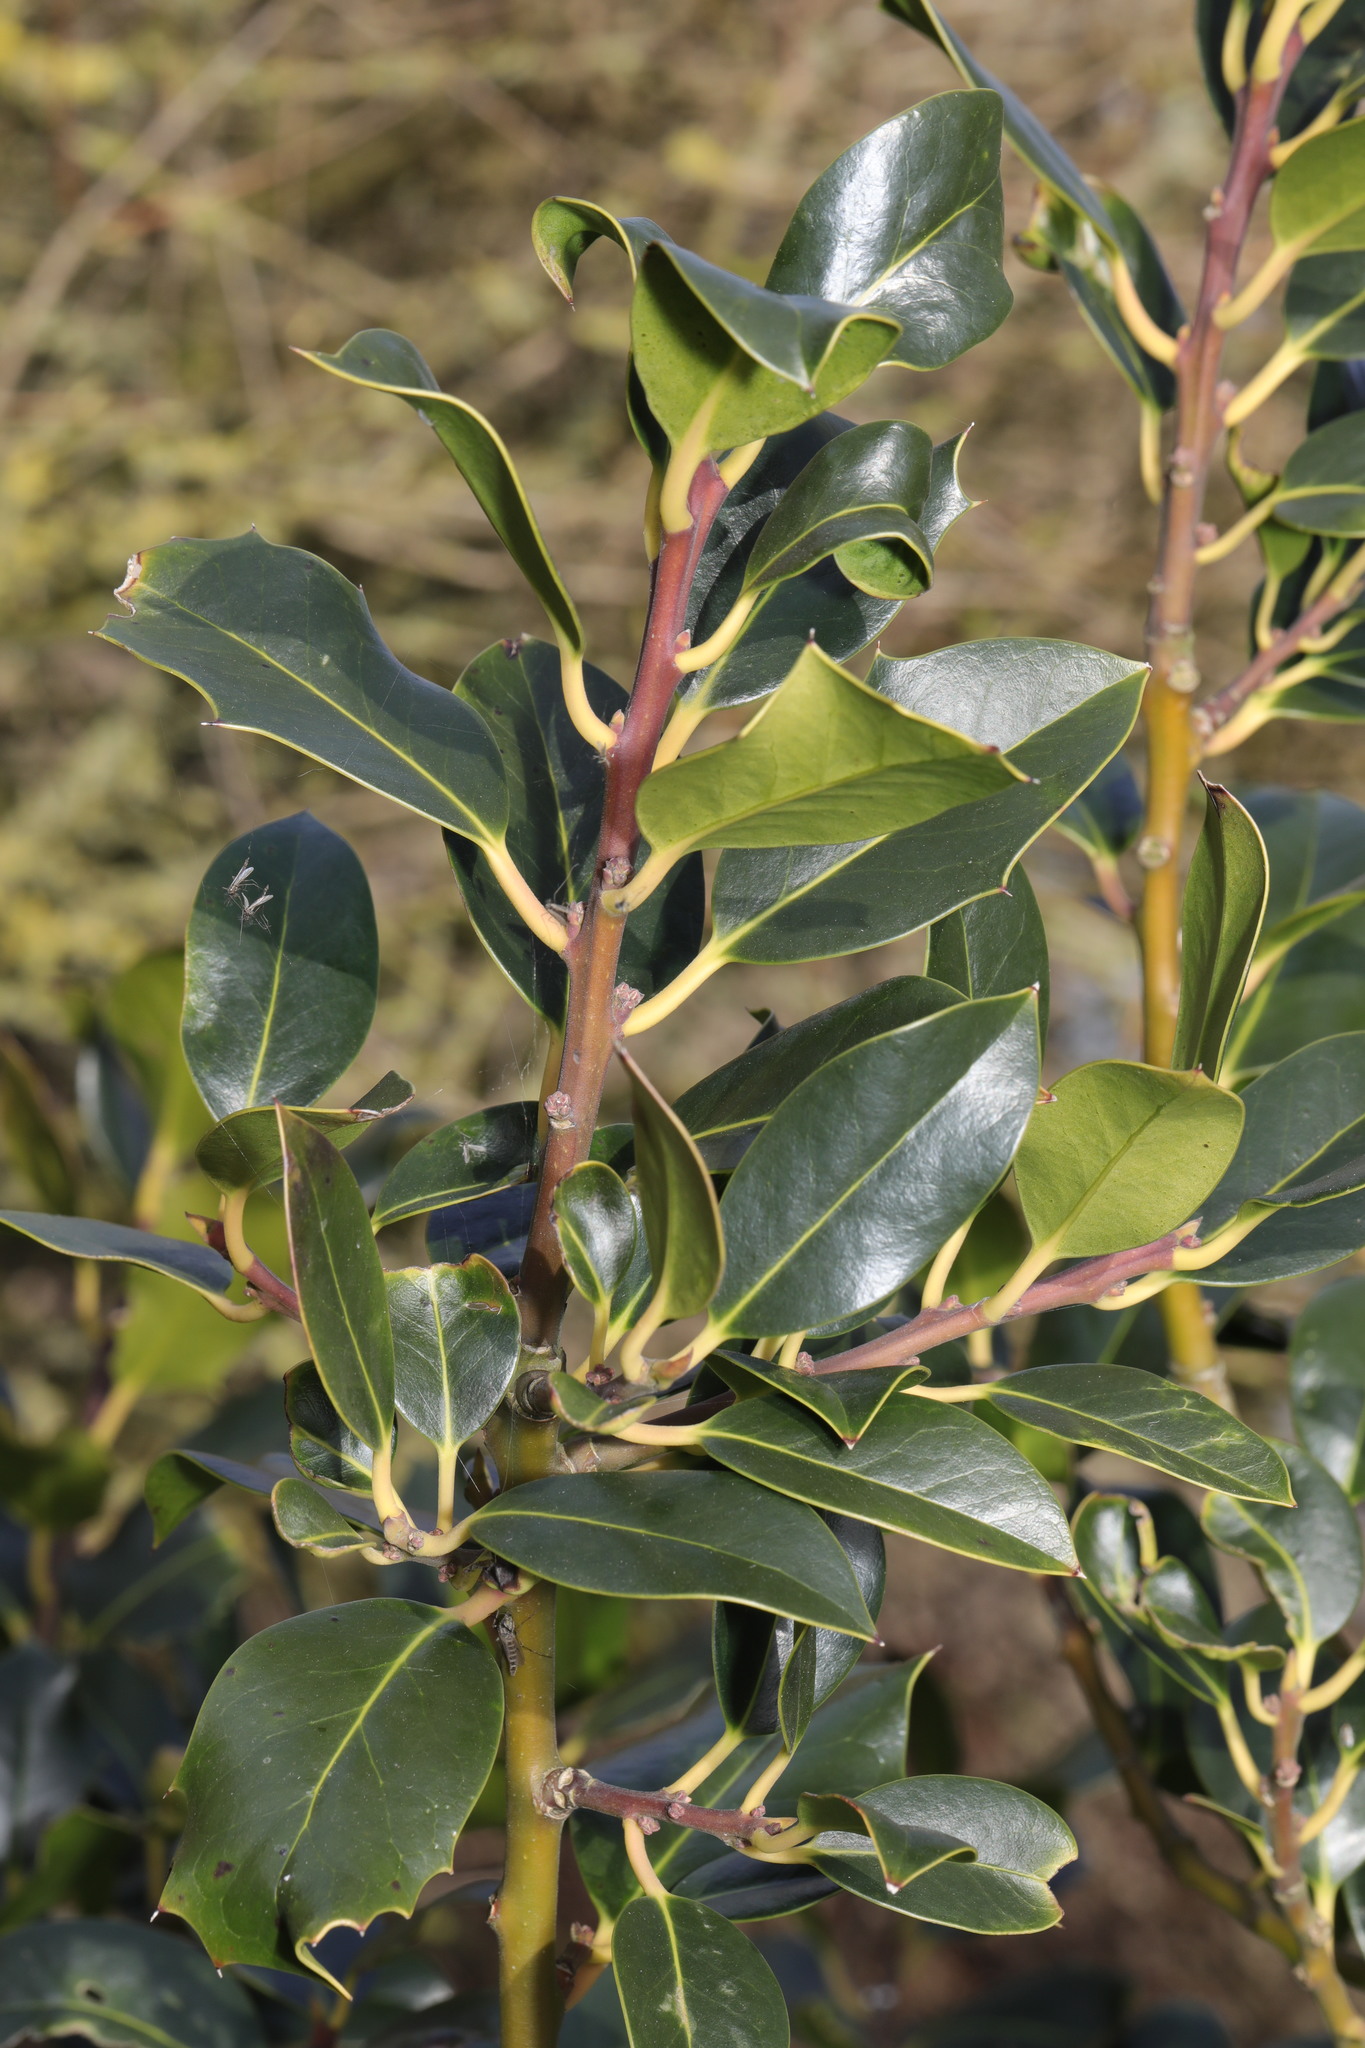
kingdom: Plantae
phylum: Tracheophyta
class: Magnoliopsida
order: Aquifoliales
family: Aquifoliaceae
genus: Ilex
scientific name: Ilex aquifolium
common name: English holly
